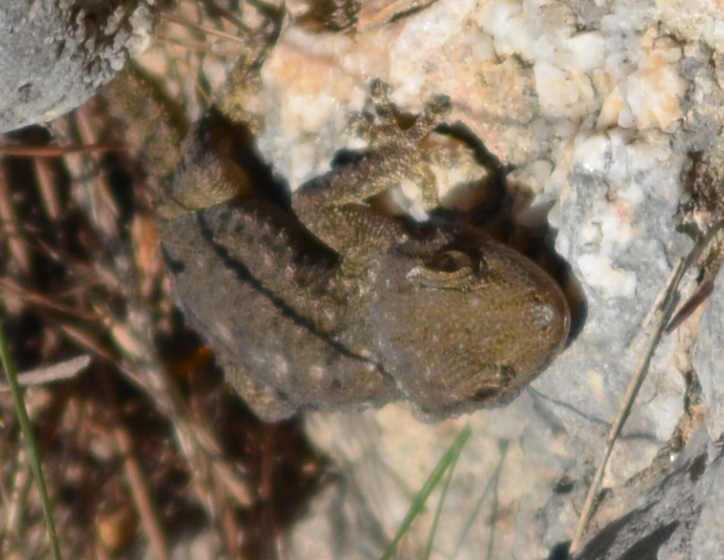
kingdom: Animalia
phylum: Chordata
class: Squamata
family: Phyllodactylidae
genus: Tarentola
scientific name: Tarentola mauritanica
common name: Moorish gecko
